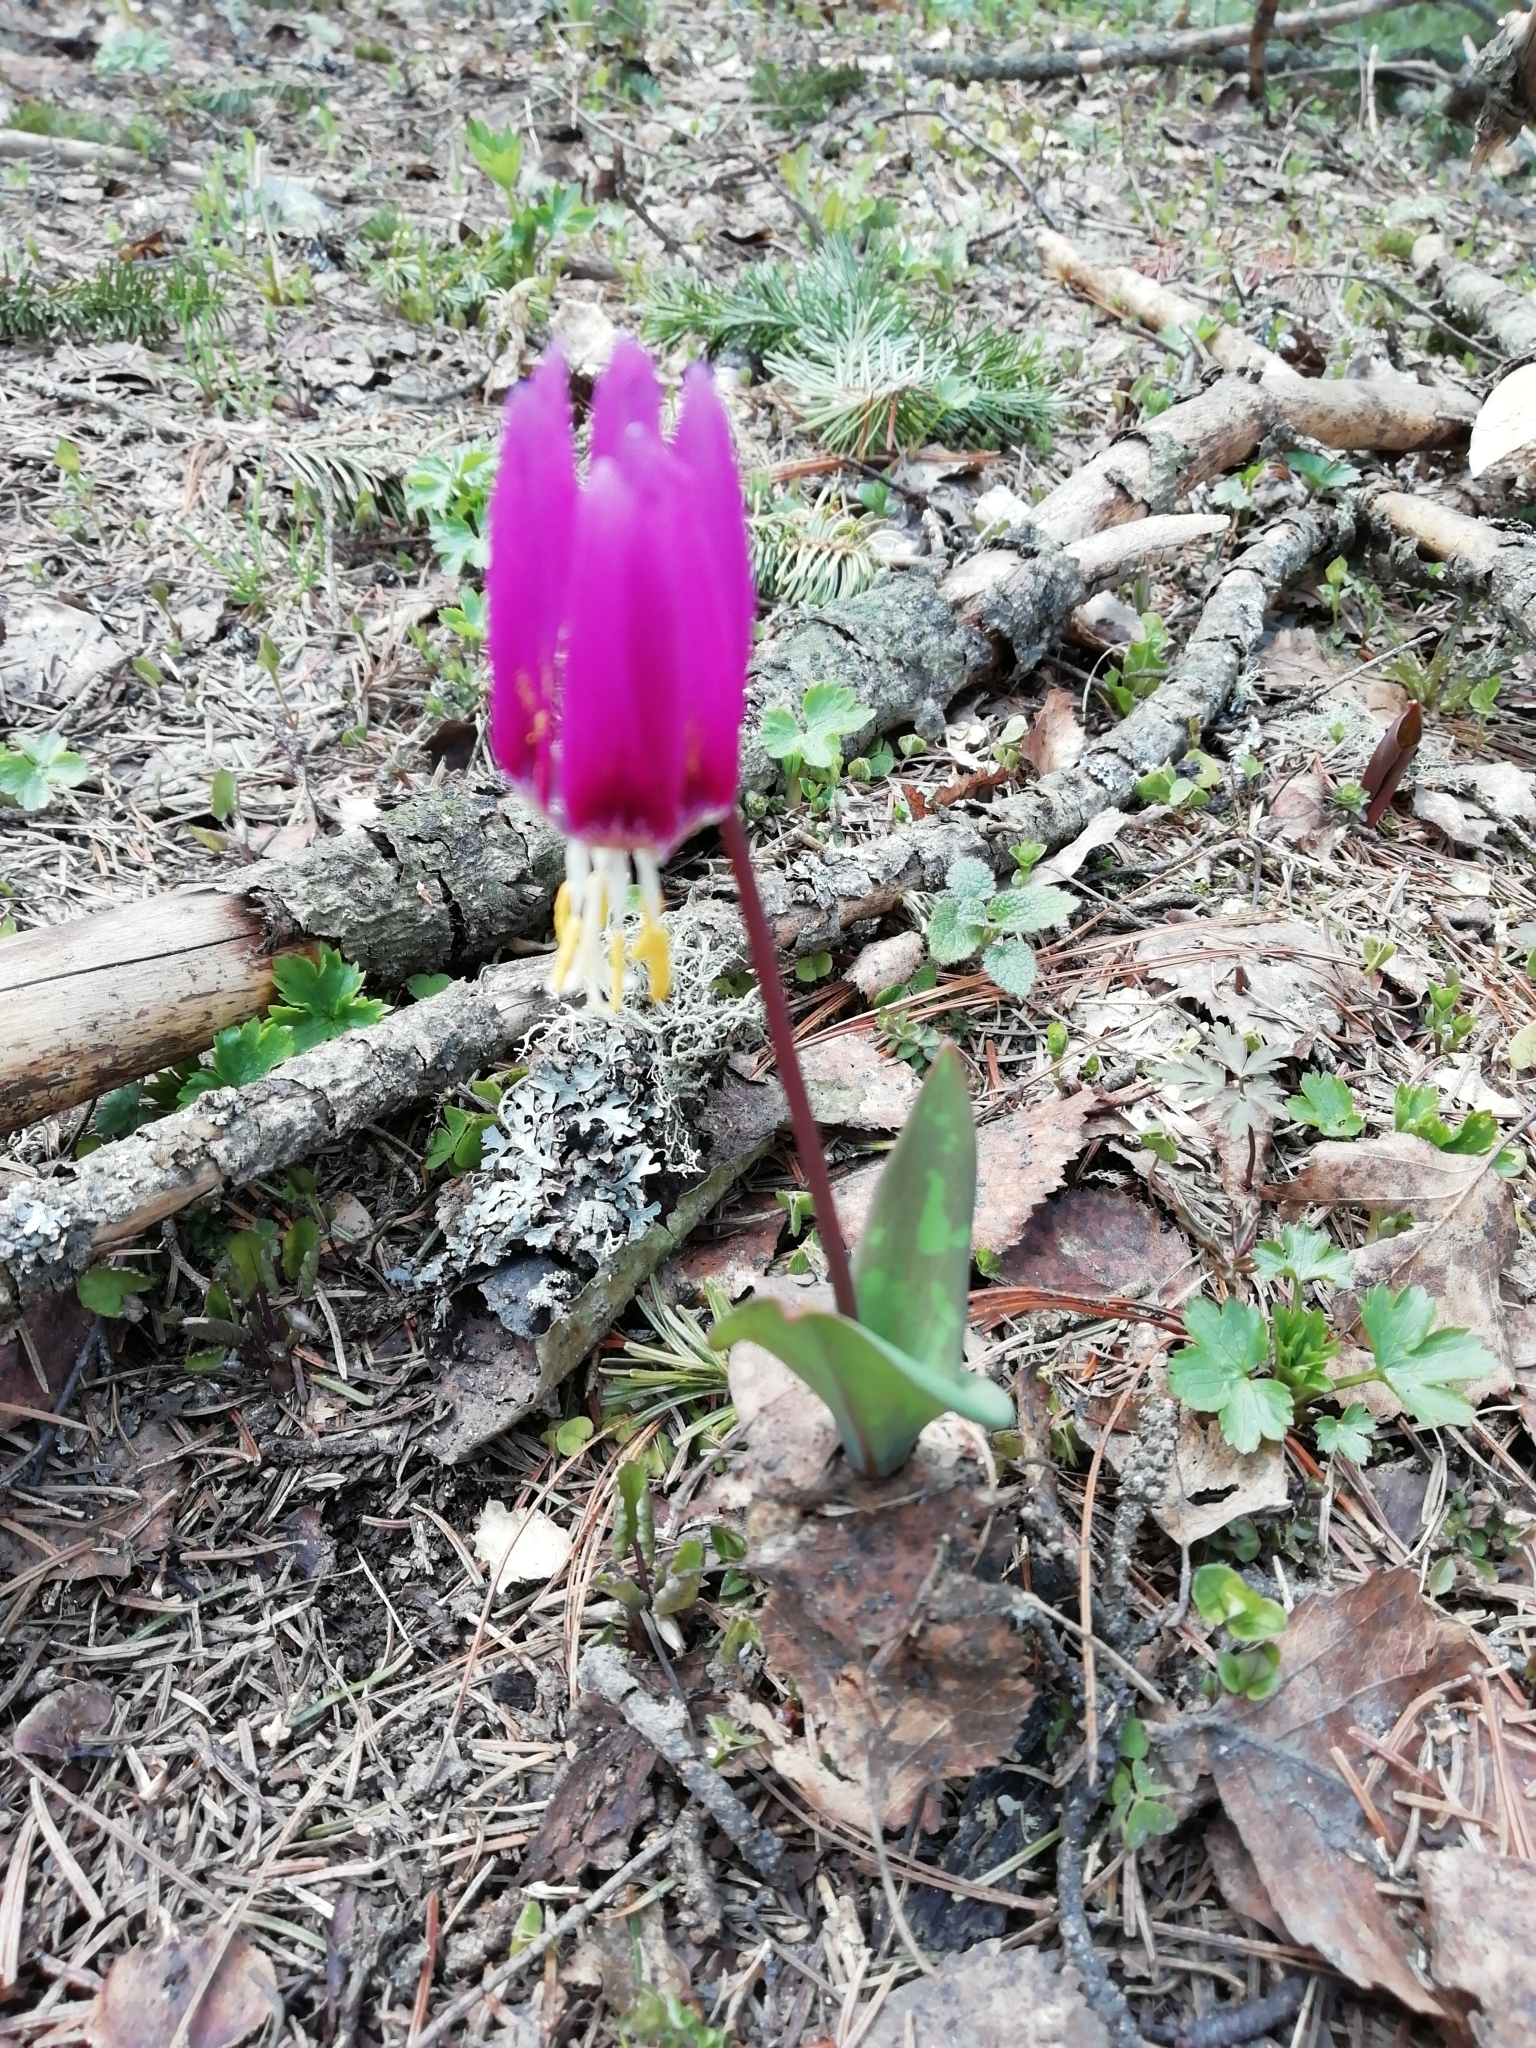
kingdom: Plantae
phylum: Tracheophyta
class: Liliopsida
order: Liliales
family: Liliaceae
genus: Erythronium
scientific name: Erythronium sibiricum
